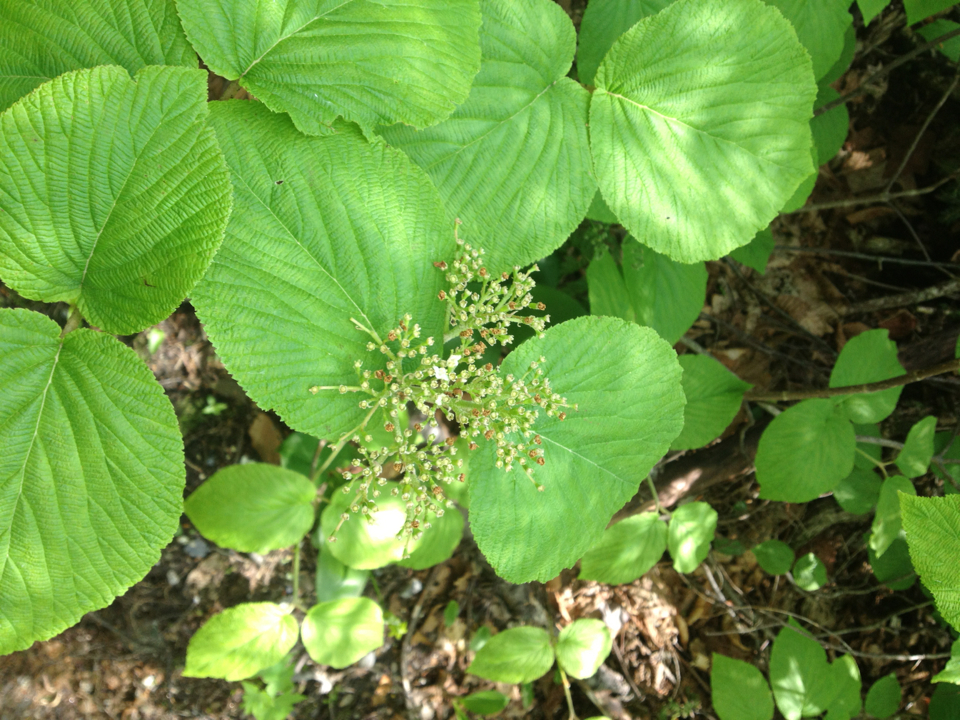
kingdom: Plantae
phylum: Tracheophyta
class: Magnoliopsida
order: Dipsacales
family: Viburnaceae
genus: Viburnum
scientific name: Viburnum lantanoides
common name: Hobblebush
